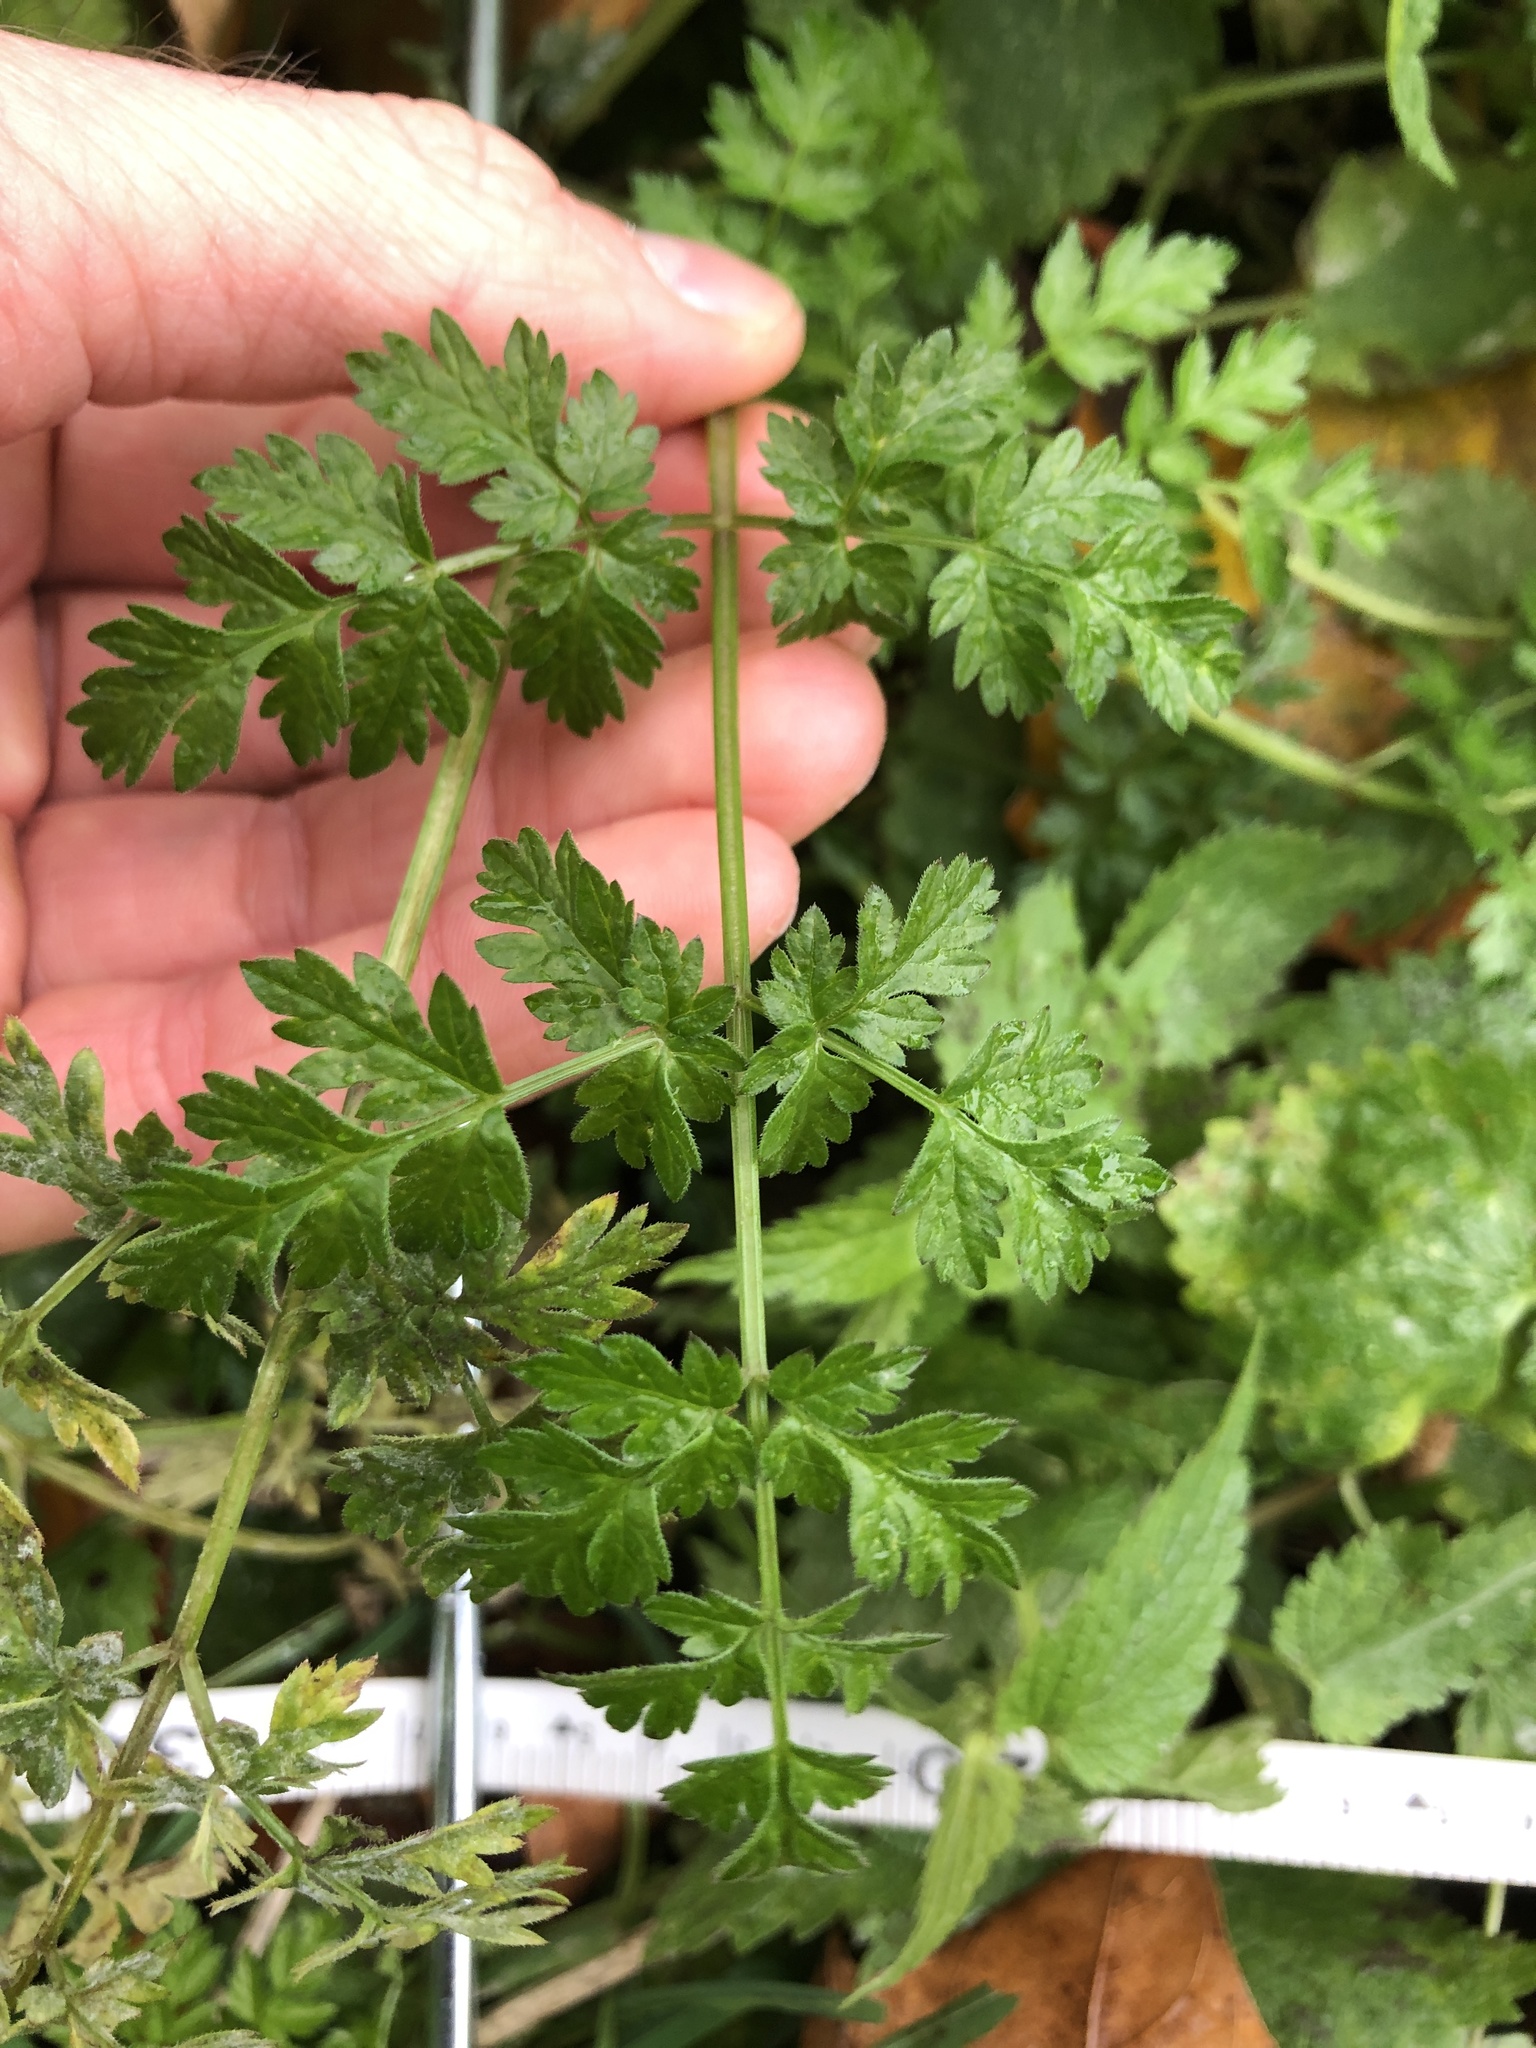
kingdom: Plantae
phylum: Tracheophyta
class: Magnoliopsida
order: Apiales
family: Apiaceae
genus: Anthriscus
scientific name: Anthriscus sylvestris
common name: Cow parsley
